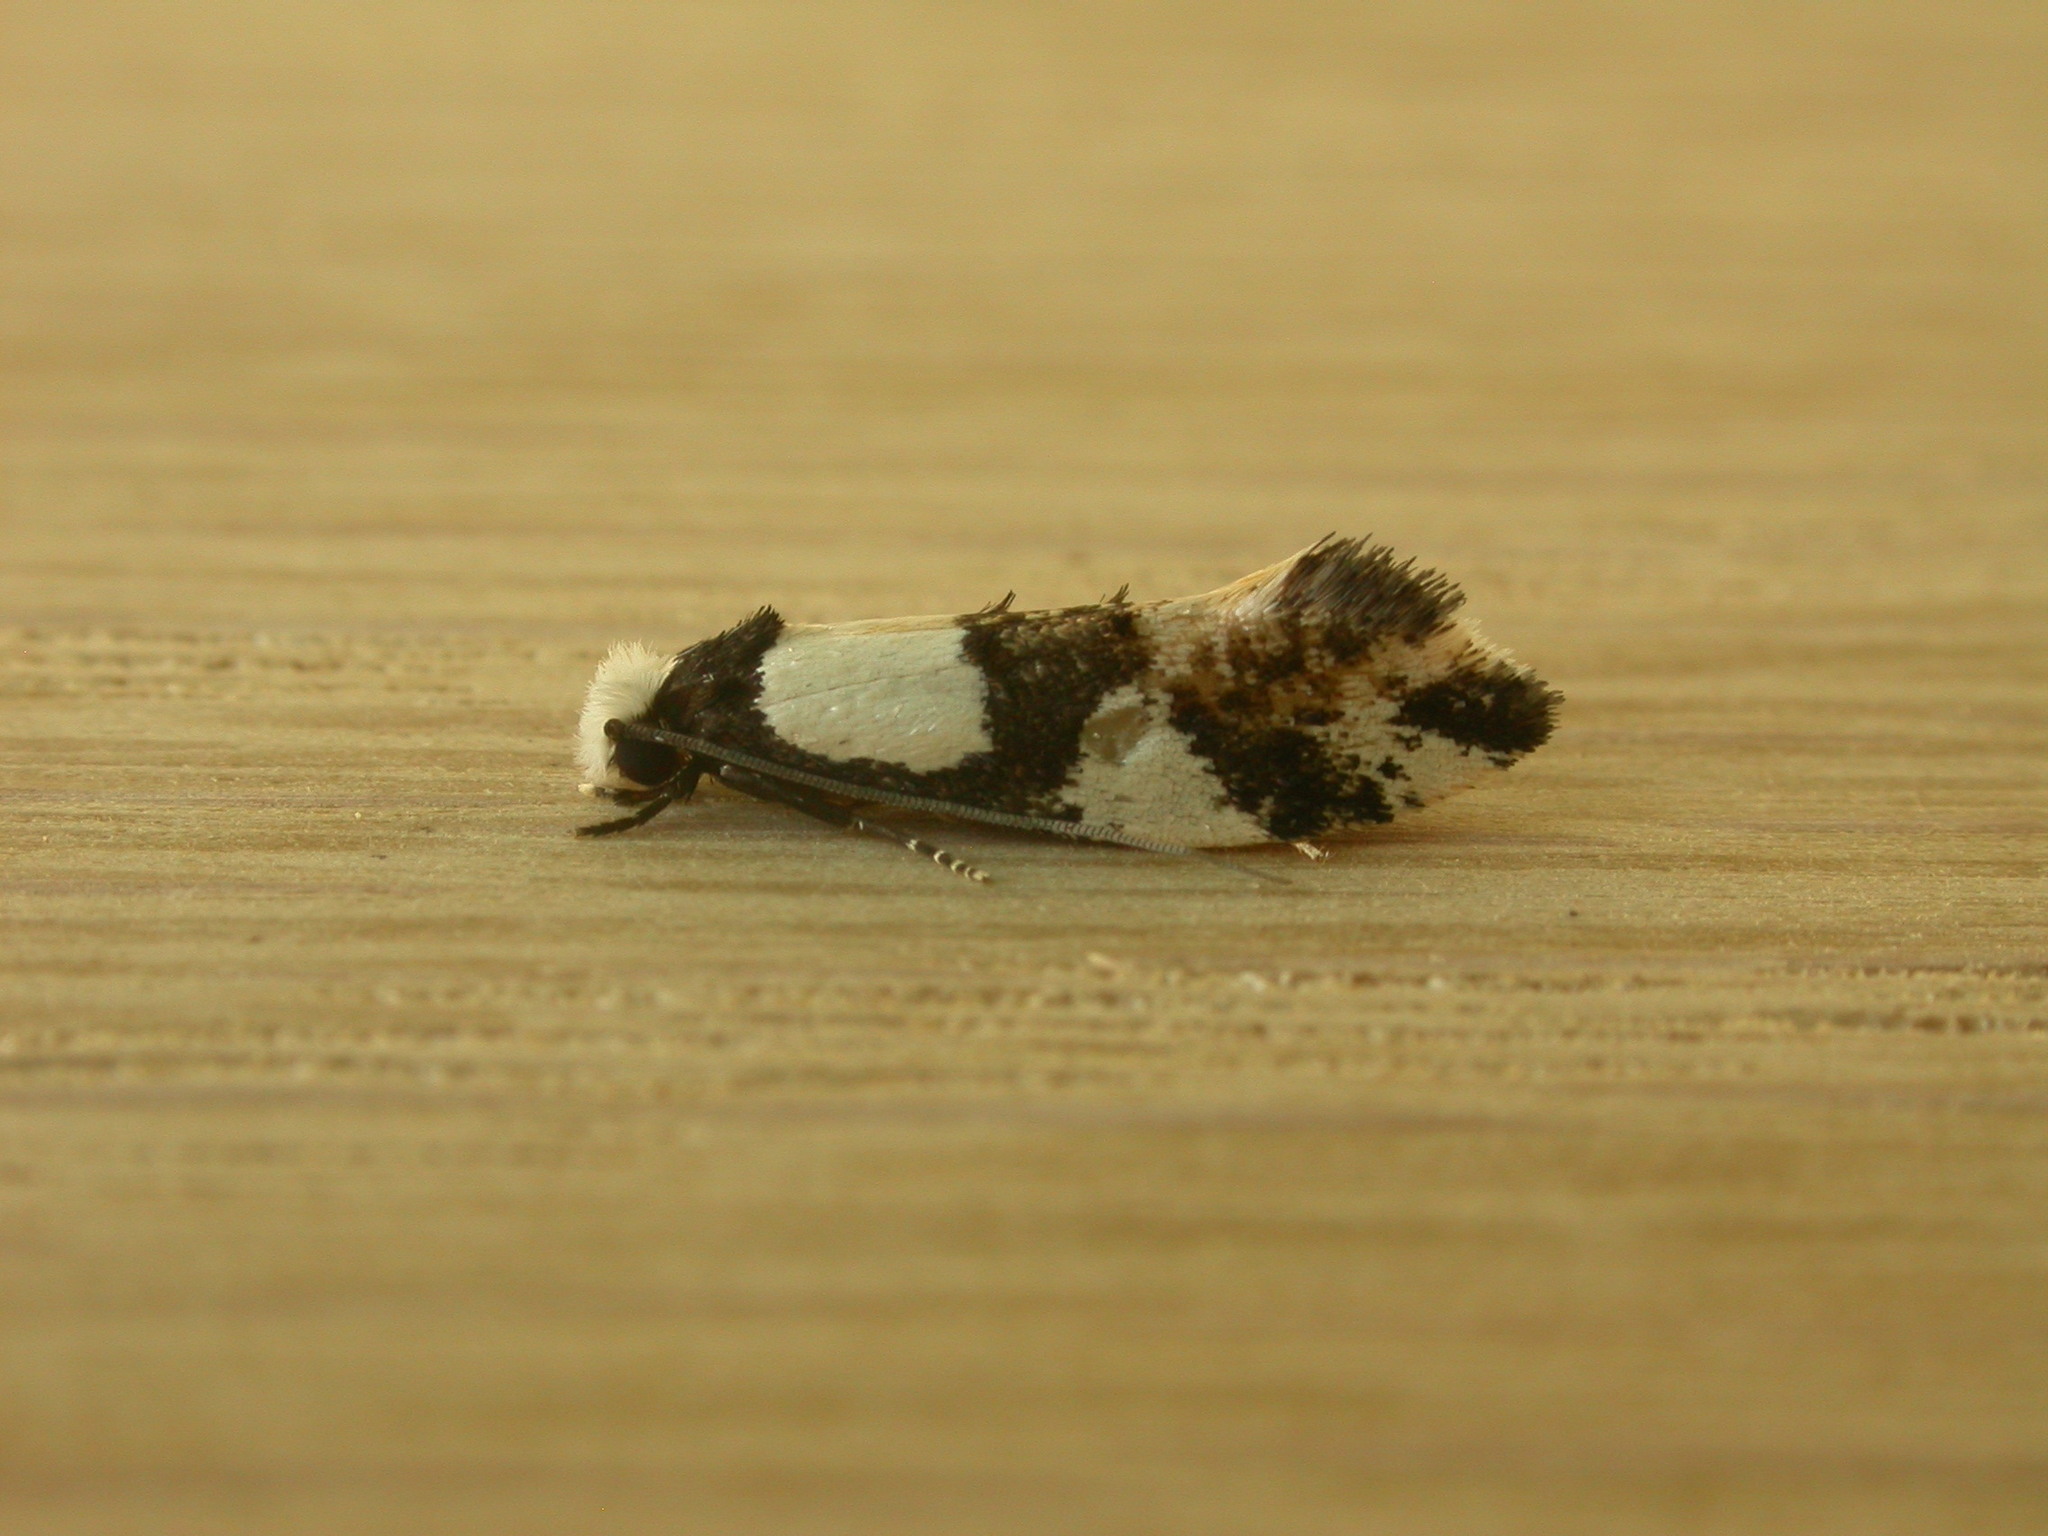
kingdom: Animalia
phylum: Arthropoda
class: Insecta
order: Lepidoptera
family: Tineidae
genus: Monopis
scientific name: Monopis icterogastra
